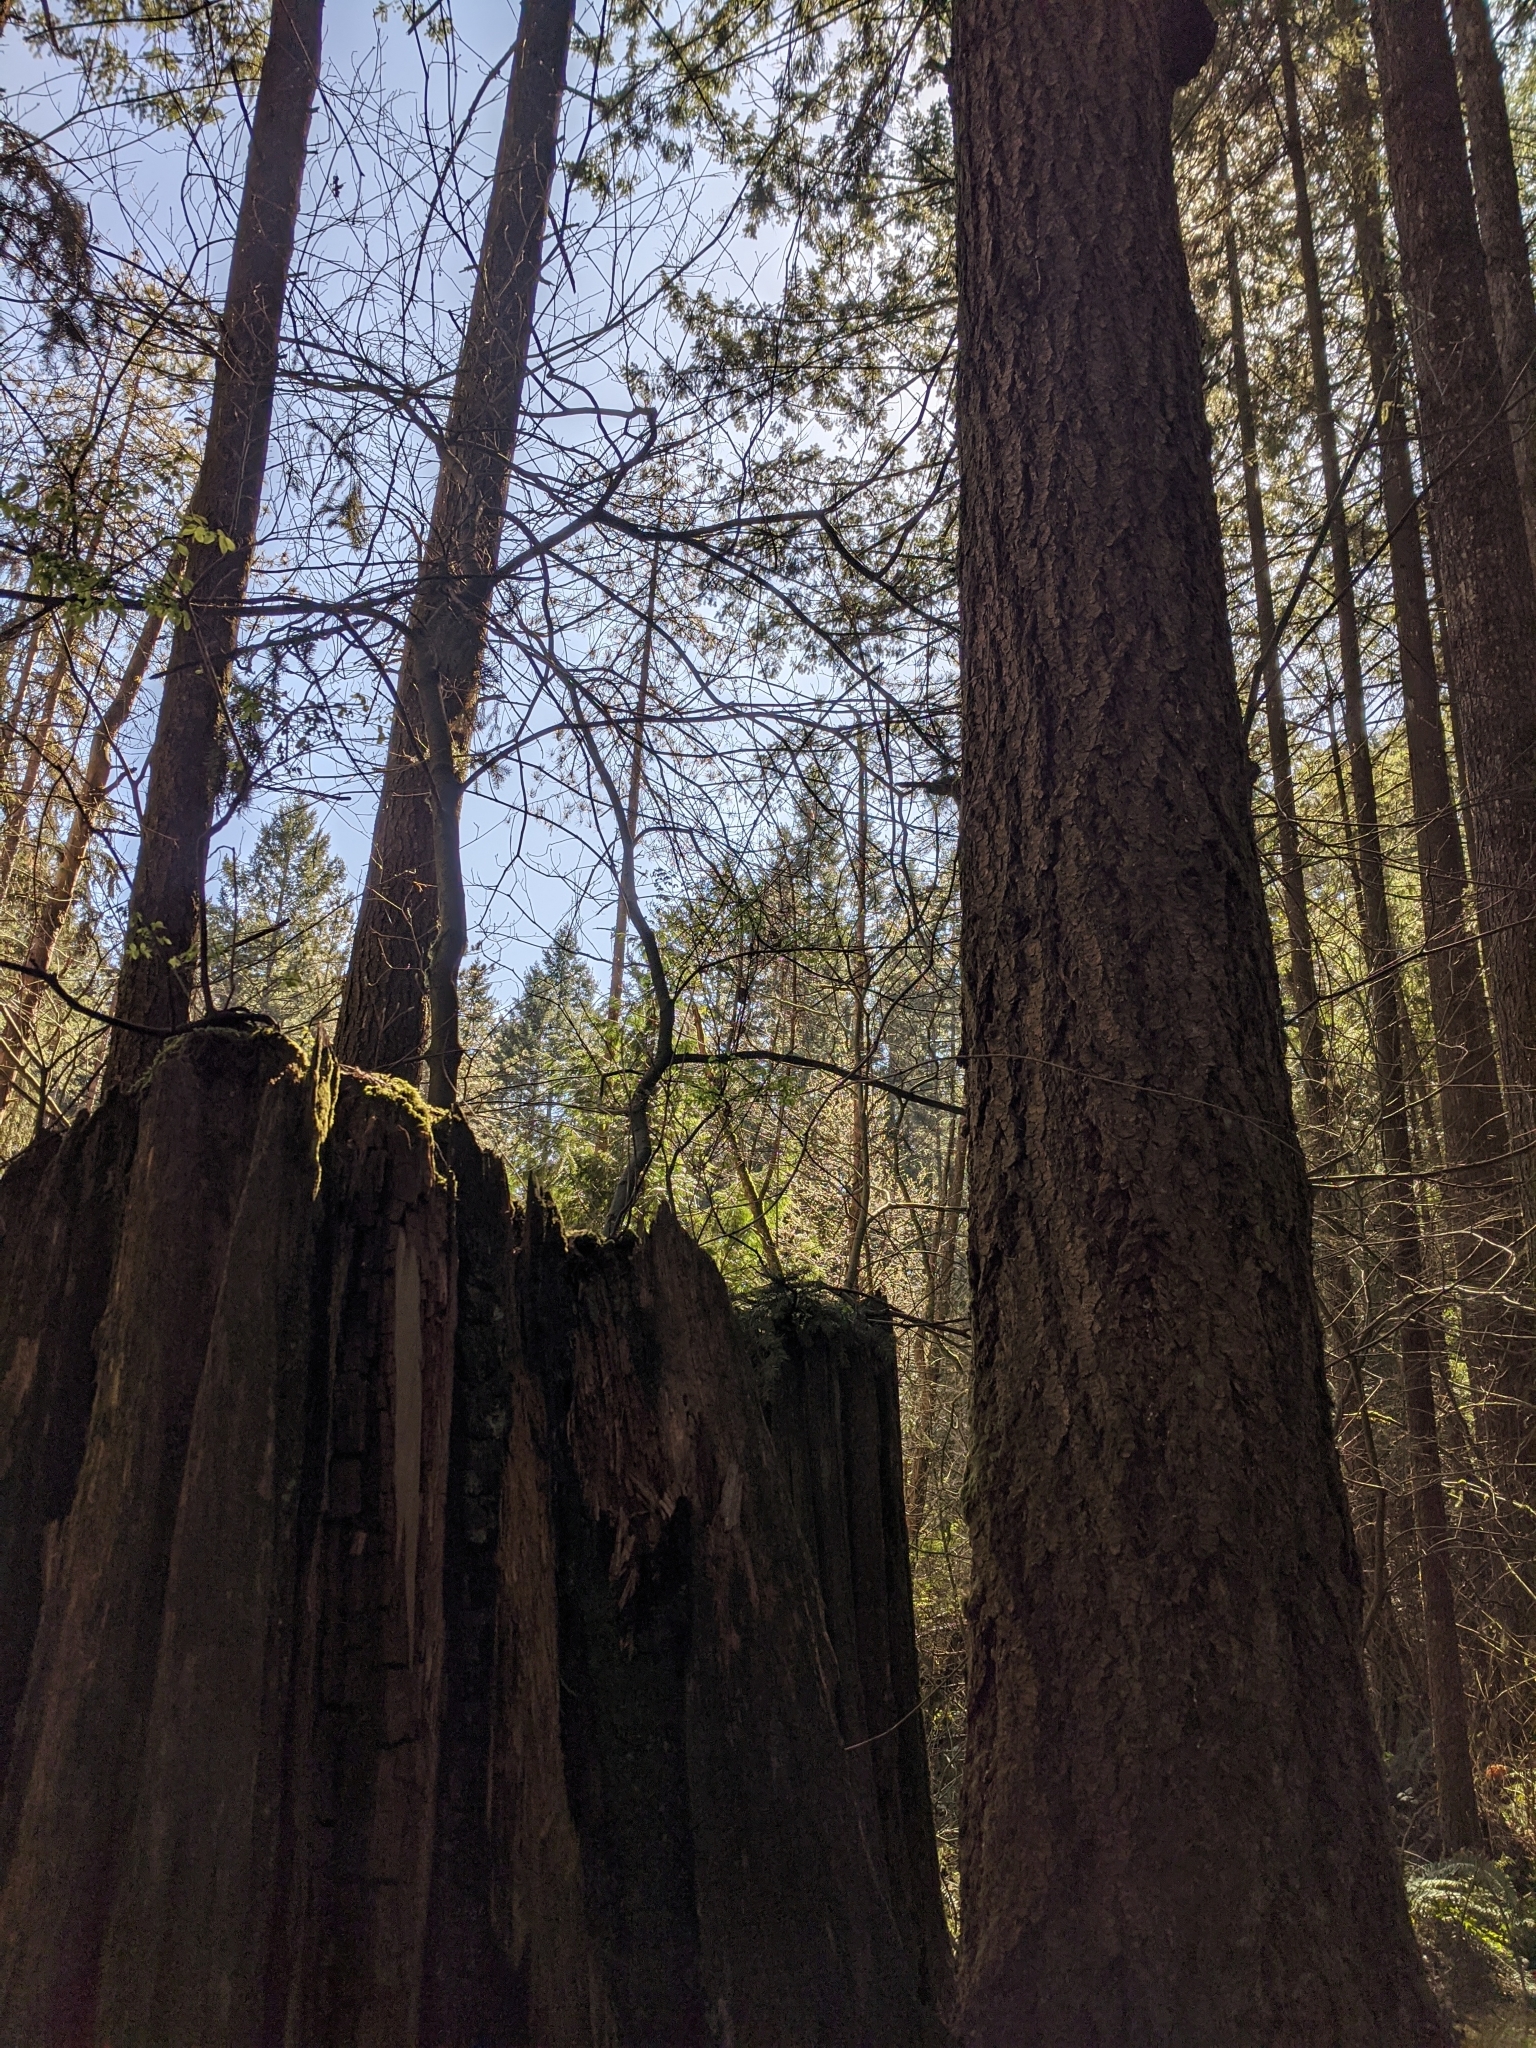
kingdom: Plantae
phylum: Tracheophyta
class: Pinopsida
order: Pinales
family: Pinaceae
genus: Pseudotsuga
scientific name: Pseudotsuga menziesii
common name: Douglas fir
